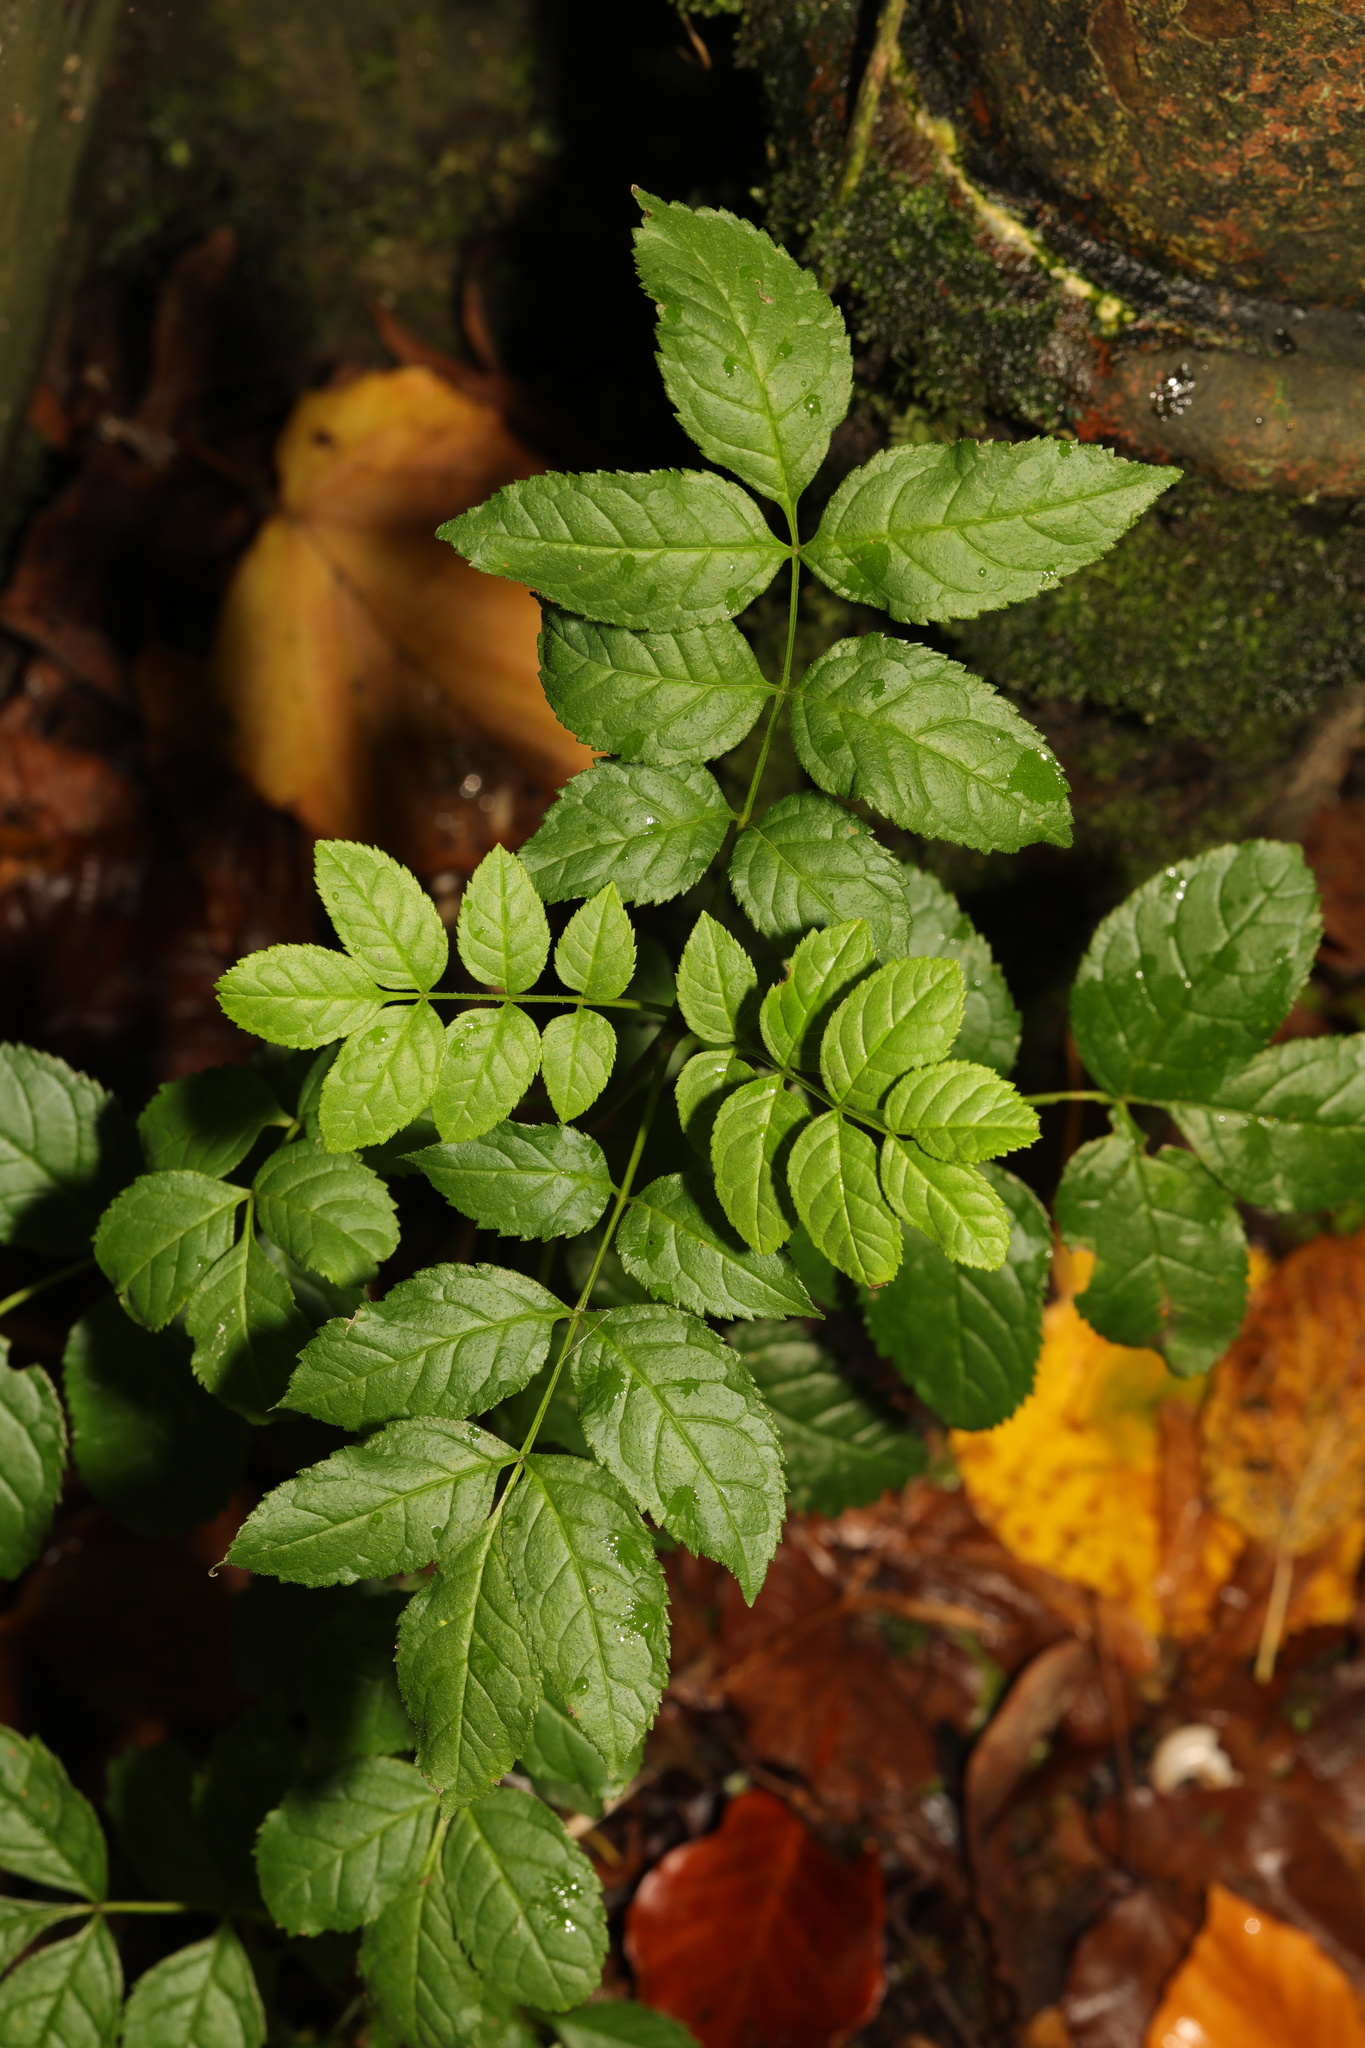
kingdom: Plantae
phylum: Tracheophyta
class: Magnoliopsida
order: Lamiales
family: Oleaceae
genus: Fraxinus
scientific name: Fraxinus excelsior
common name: European ash
